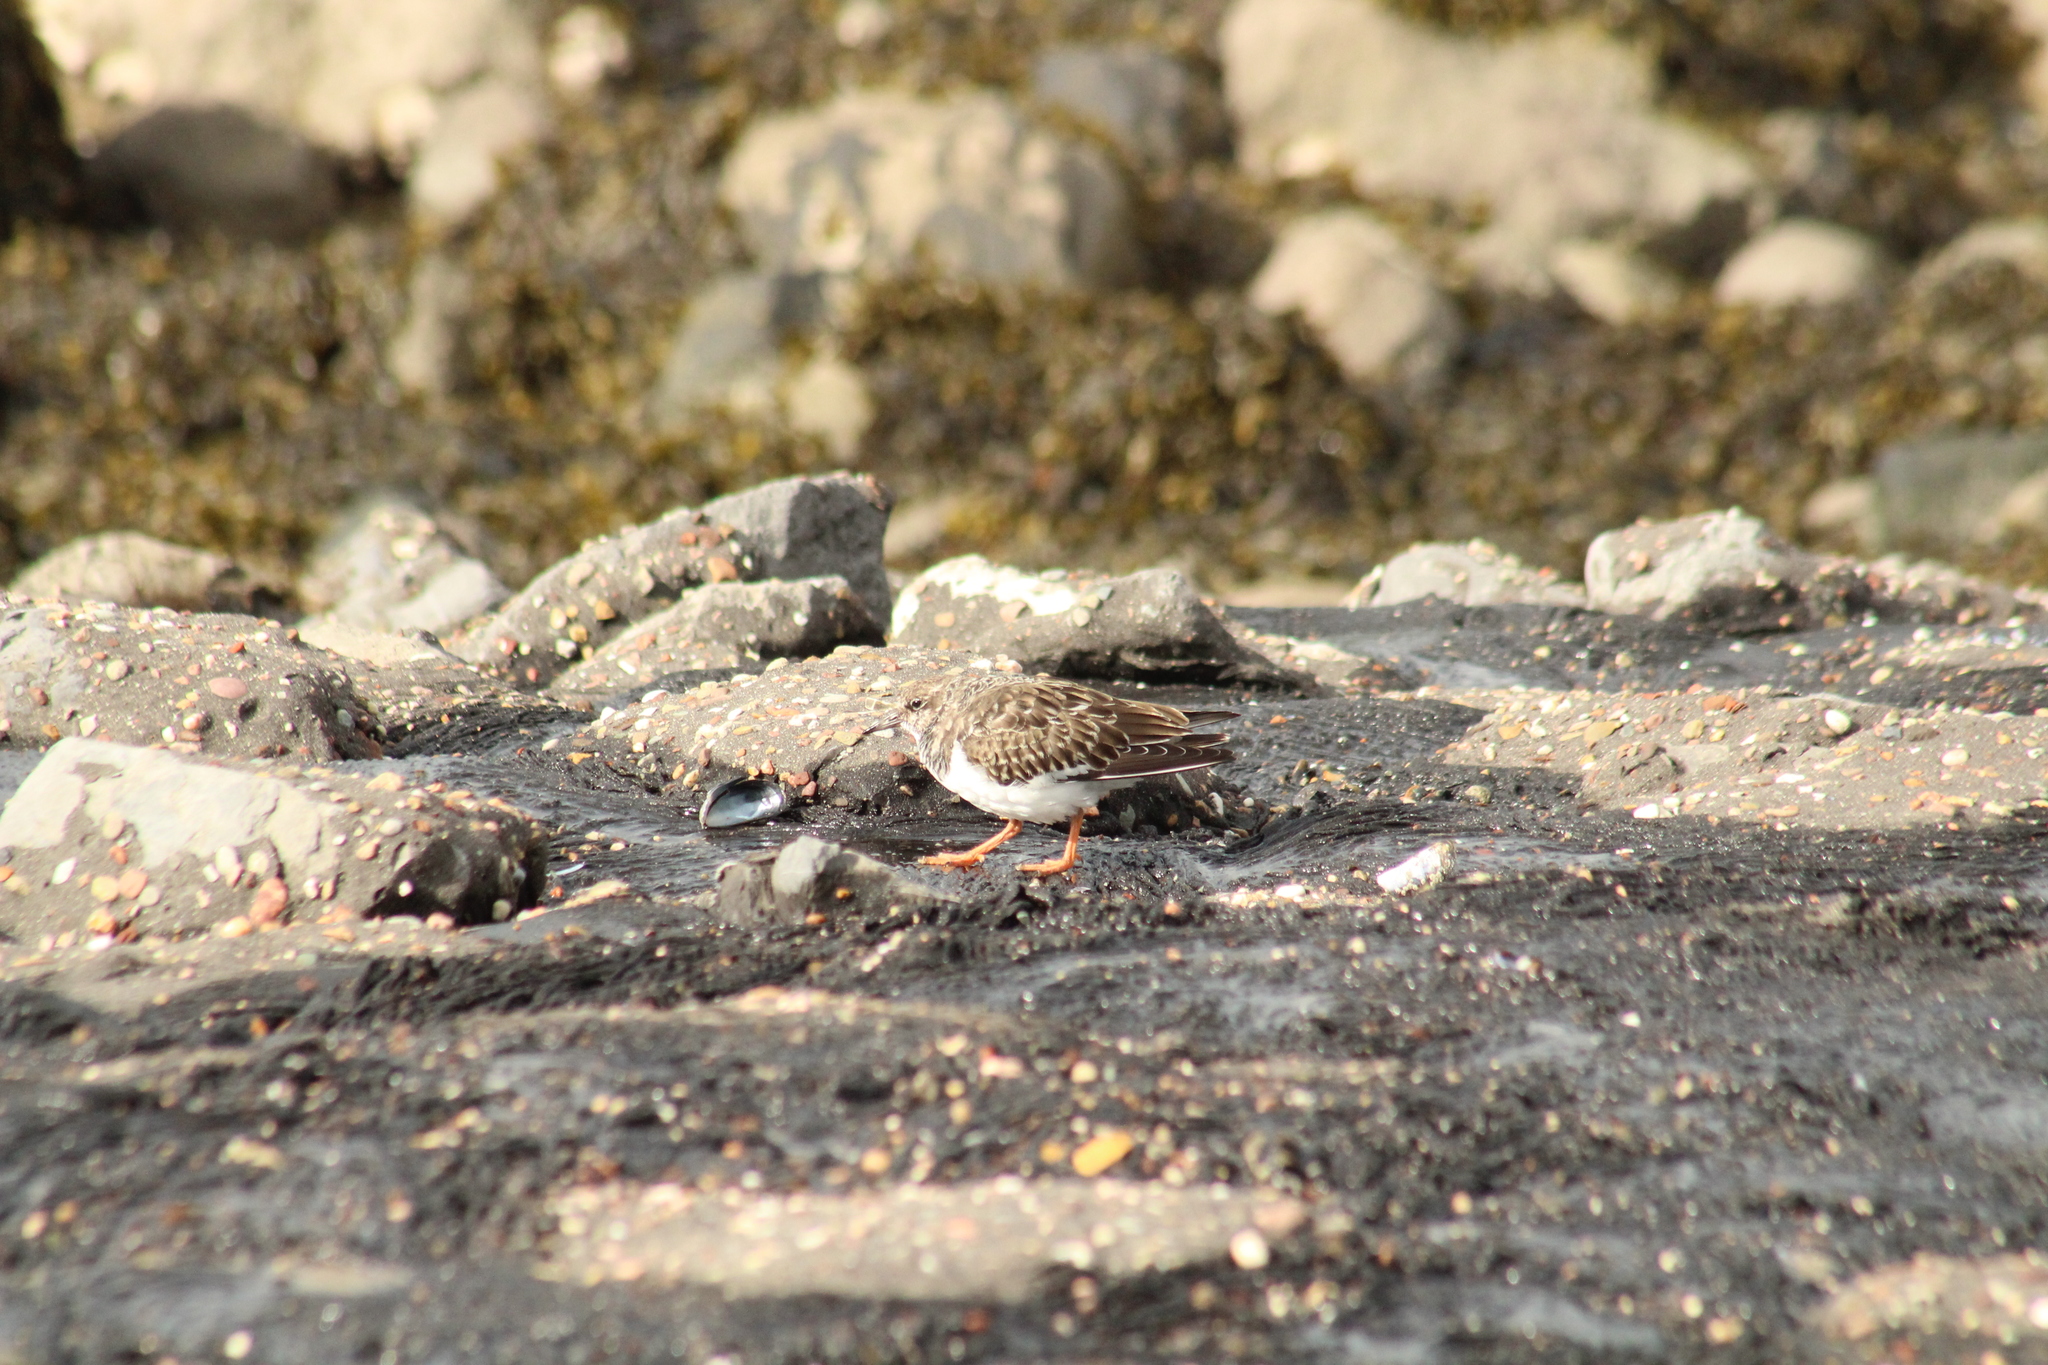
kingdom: Animalia
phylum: Chordata
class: Aves
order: Charadriiformes
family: Scolopacidae
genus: Arenaria
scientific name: Arenaria interpres
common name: Ruddy turnstone
